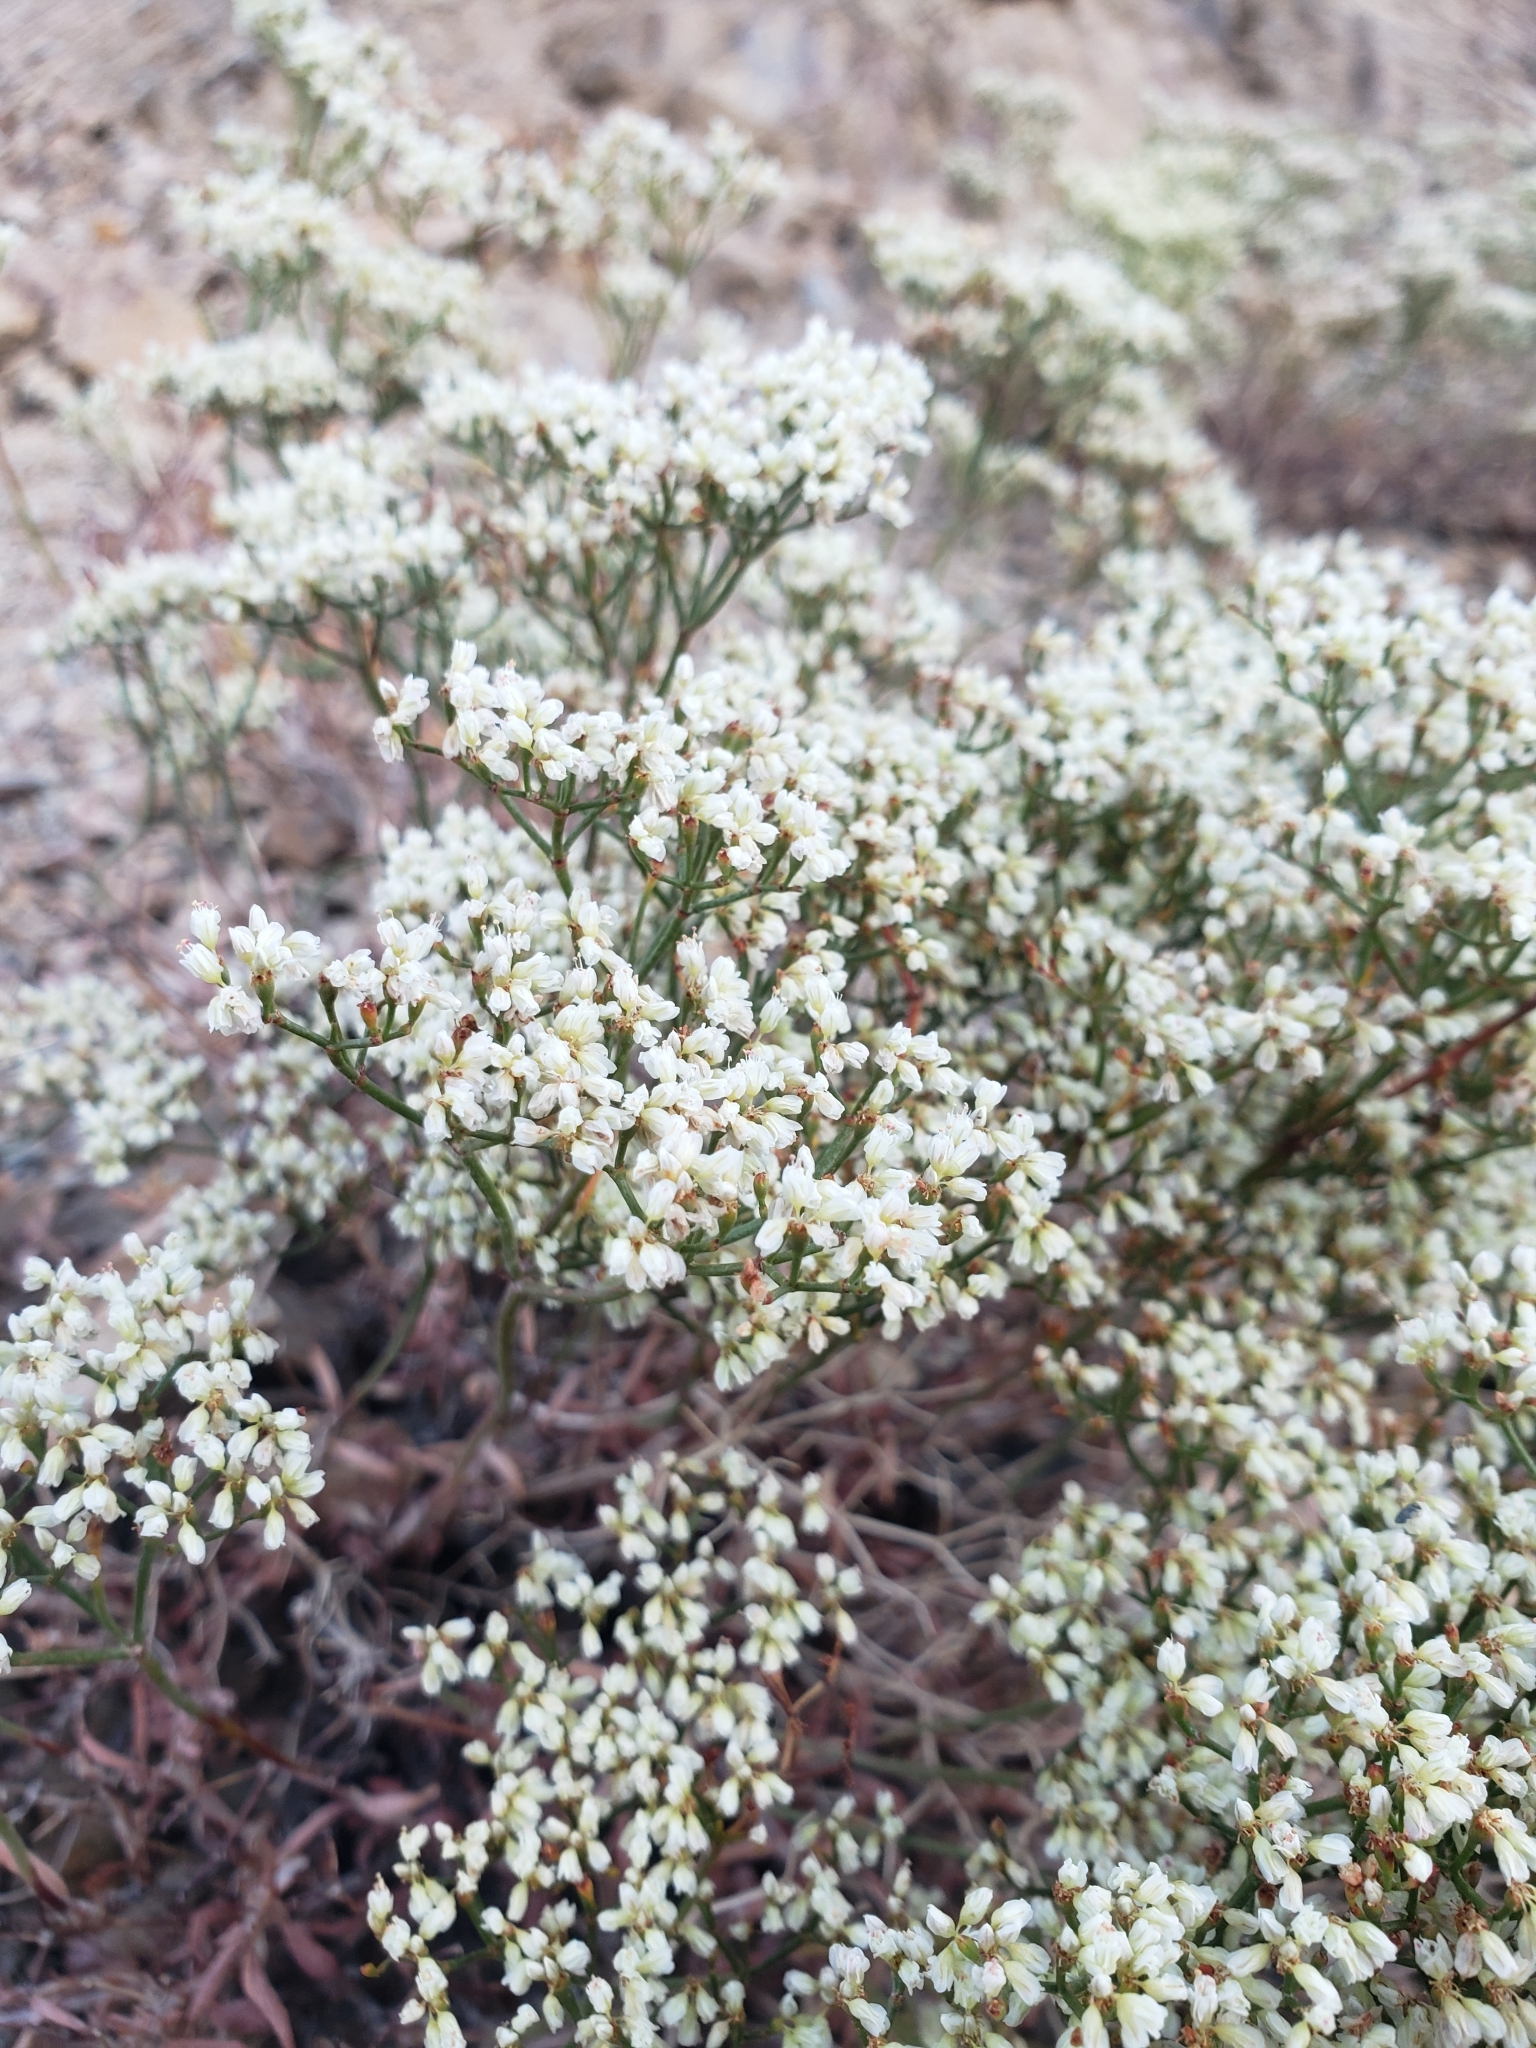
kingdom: Plantae
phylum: Tracheophyta
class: Magnoliopsida
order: Caryophyllales
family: Polygonaceae
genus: Eriogonum
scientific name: Eriogonum microtheca
